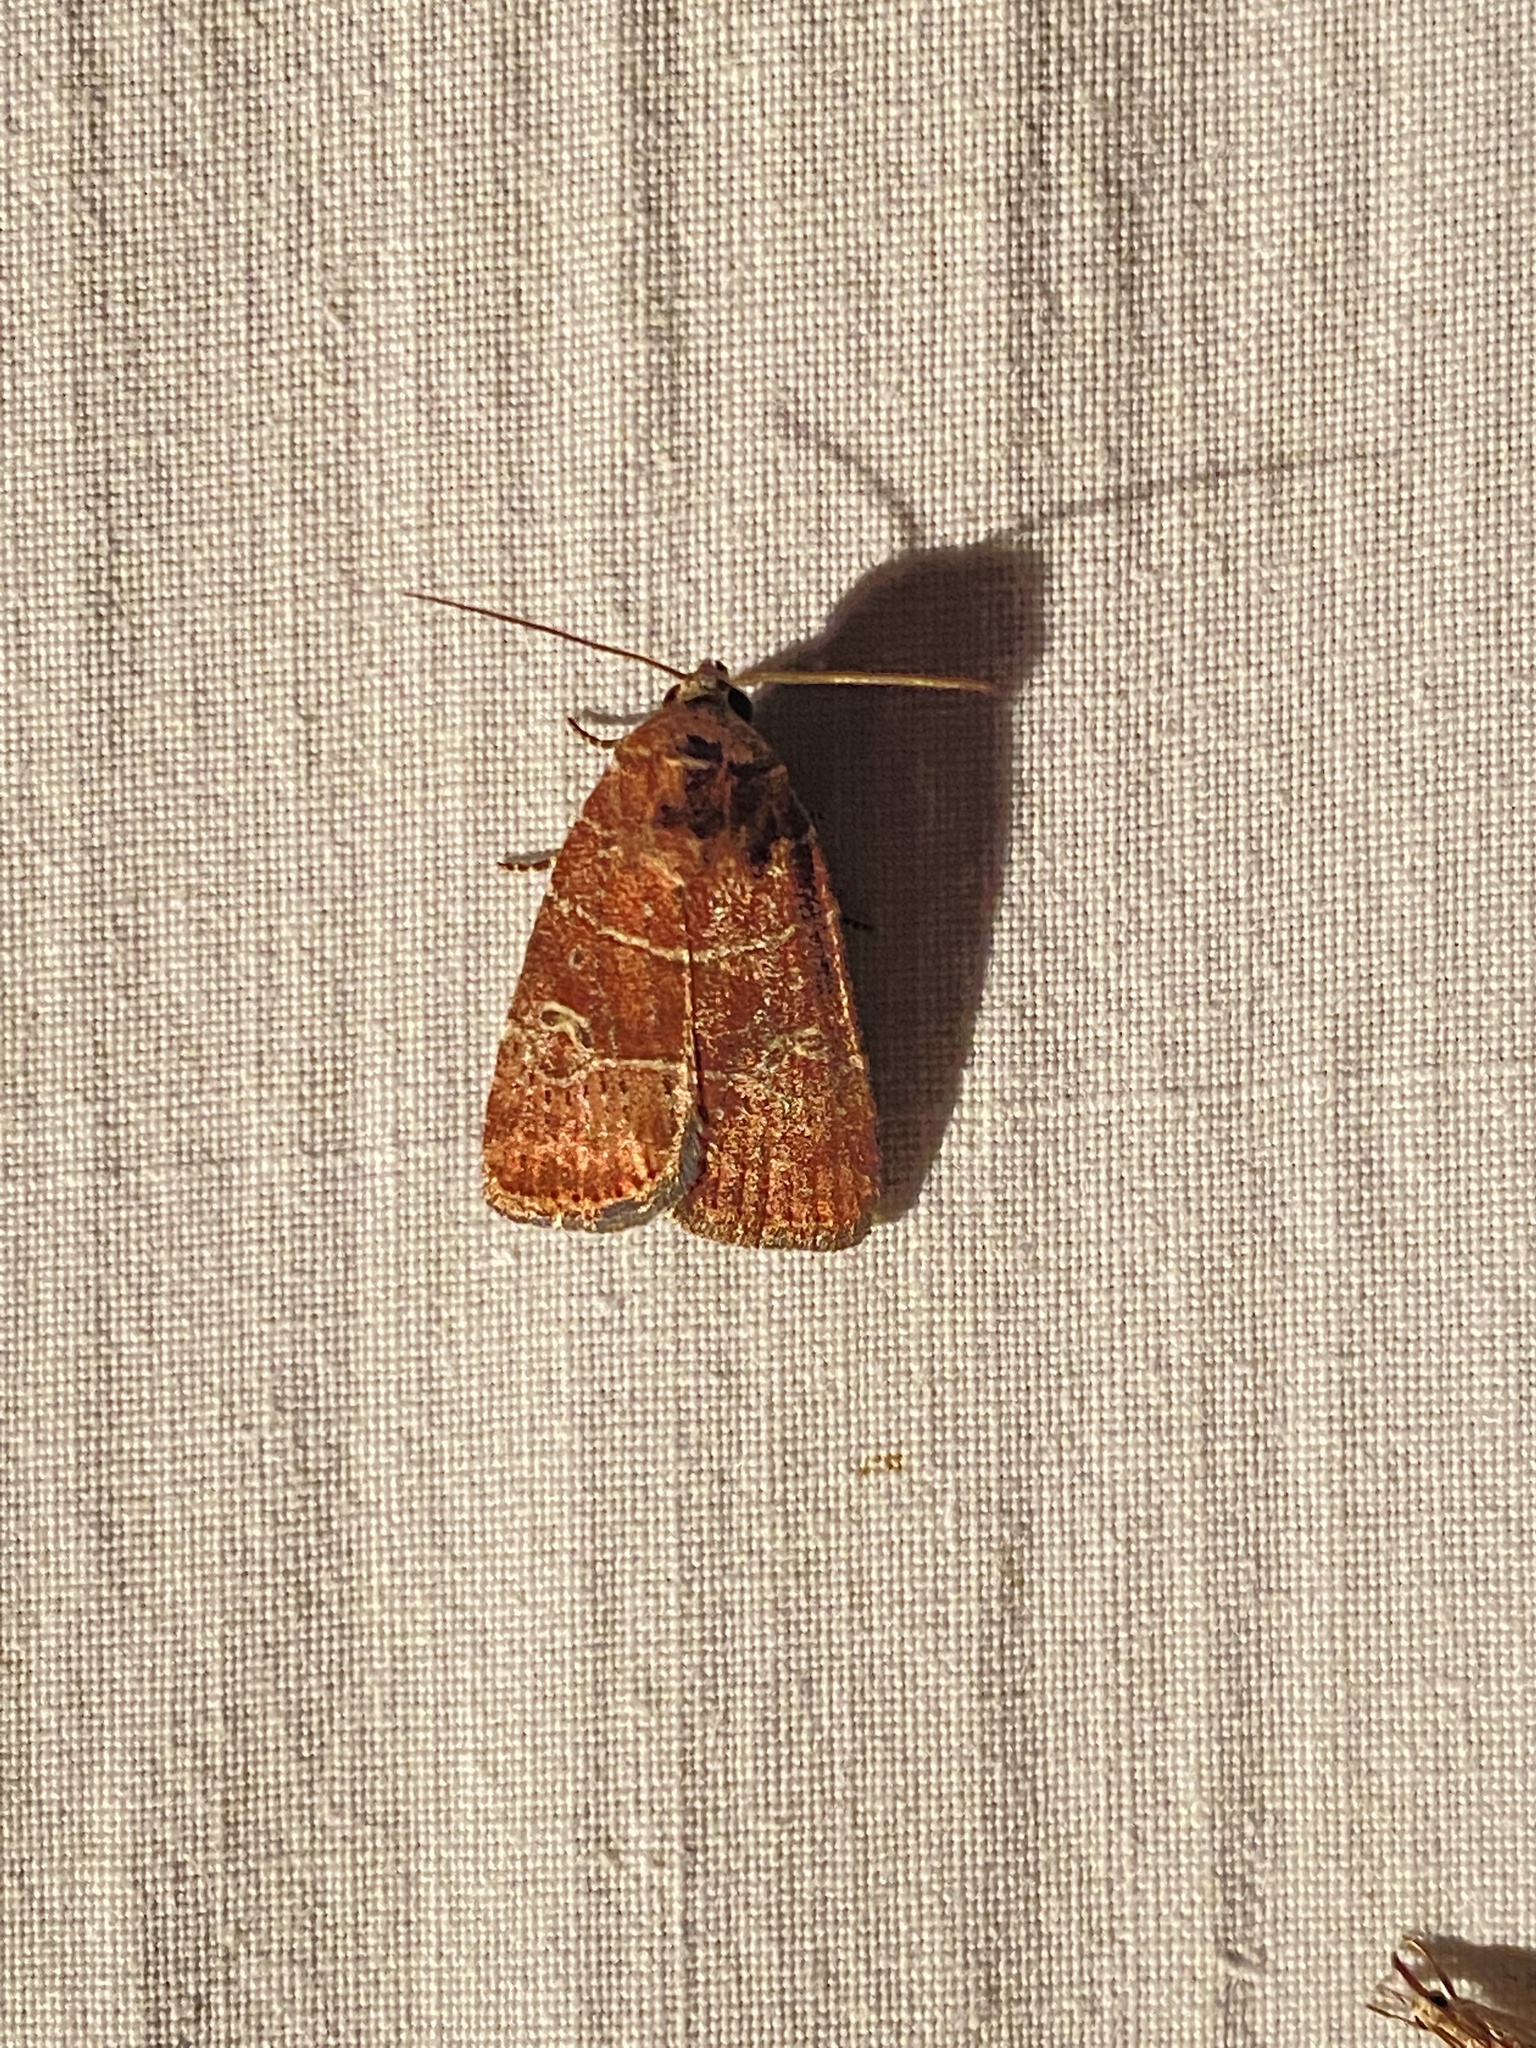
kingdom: Animalia
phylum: Arthropoda
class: Insecta
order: Lepidoptera
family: Noctuidae
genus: Elaphria
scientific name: Elaphria grata
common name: Grateful midget moth
